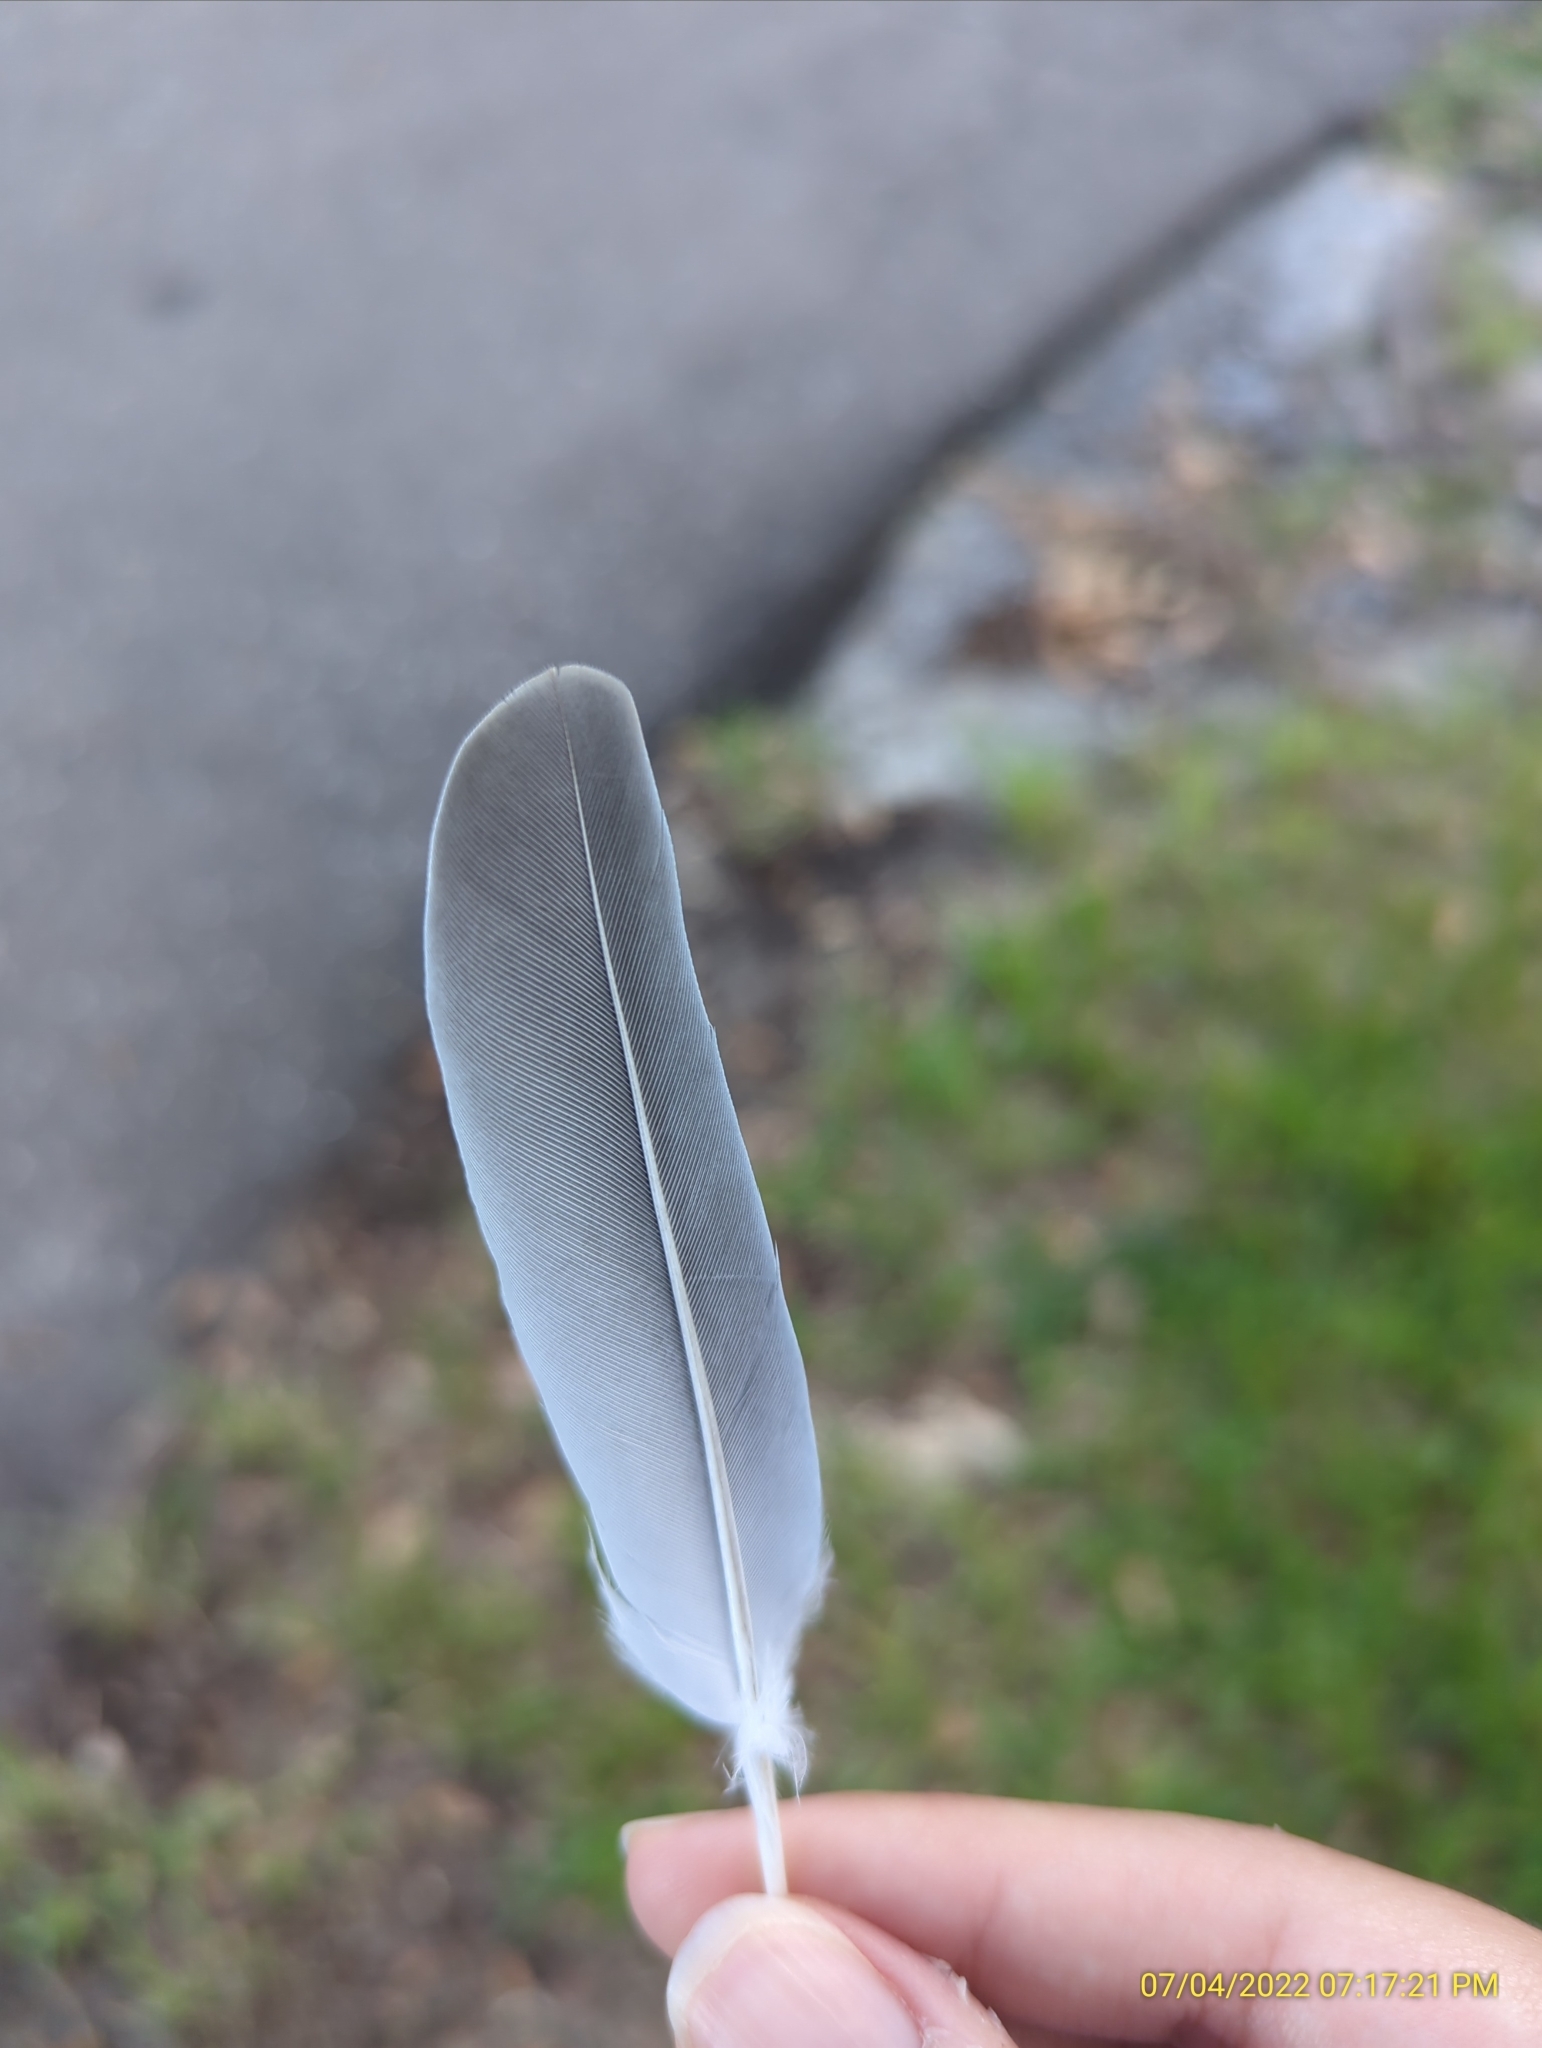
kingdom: Animalia
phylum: Chordata
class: Aves
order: Columbiformes
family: Columbidae
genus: Zenaida
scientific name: Zenaida macroura
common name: Mourning dove
